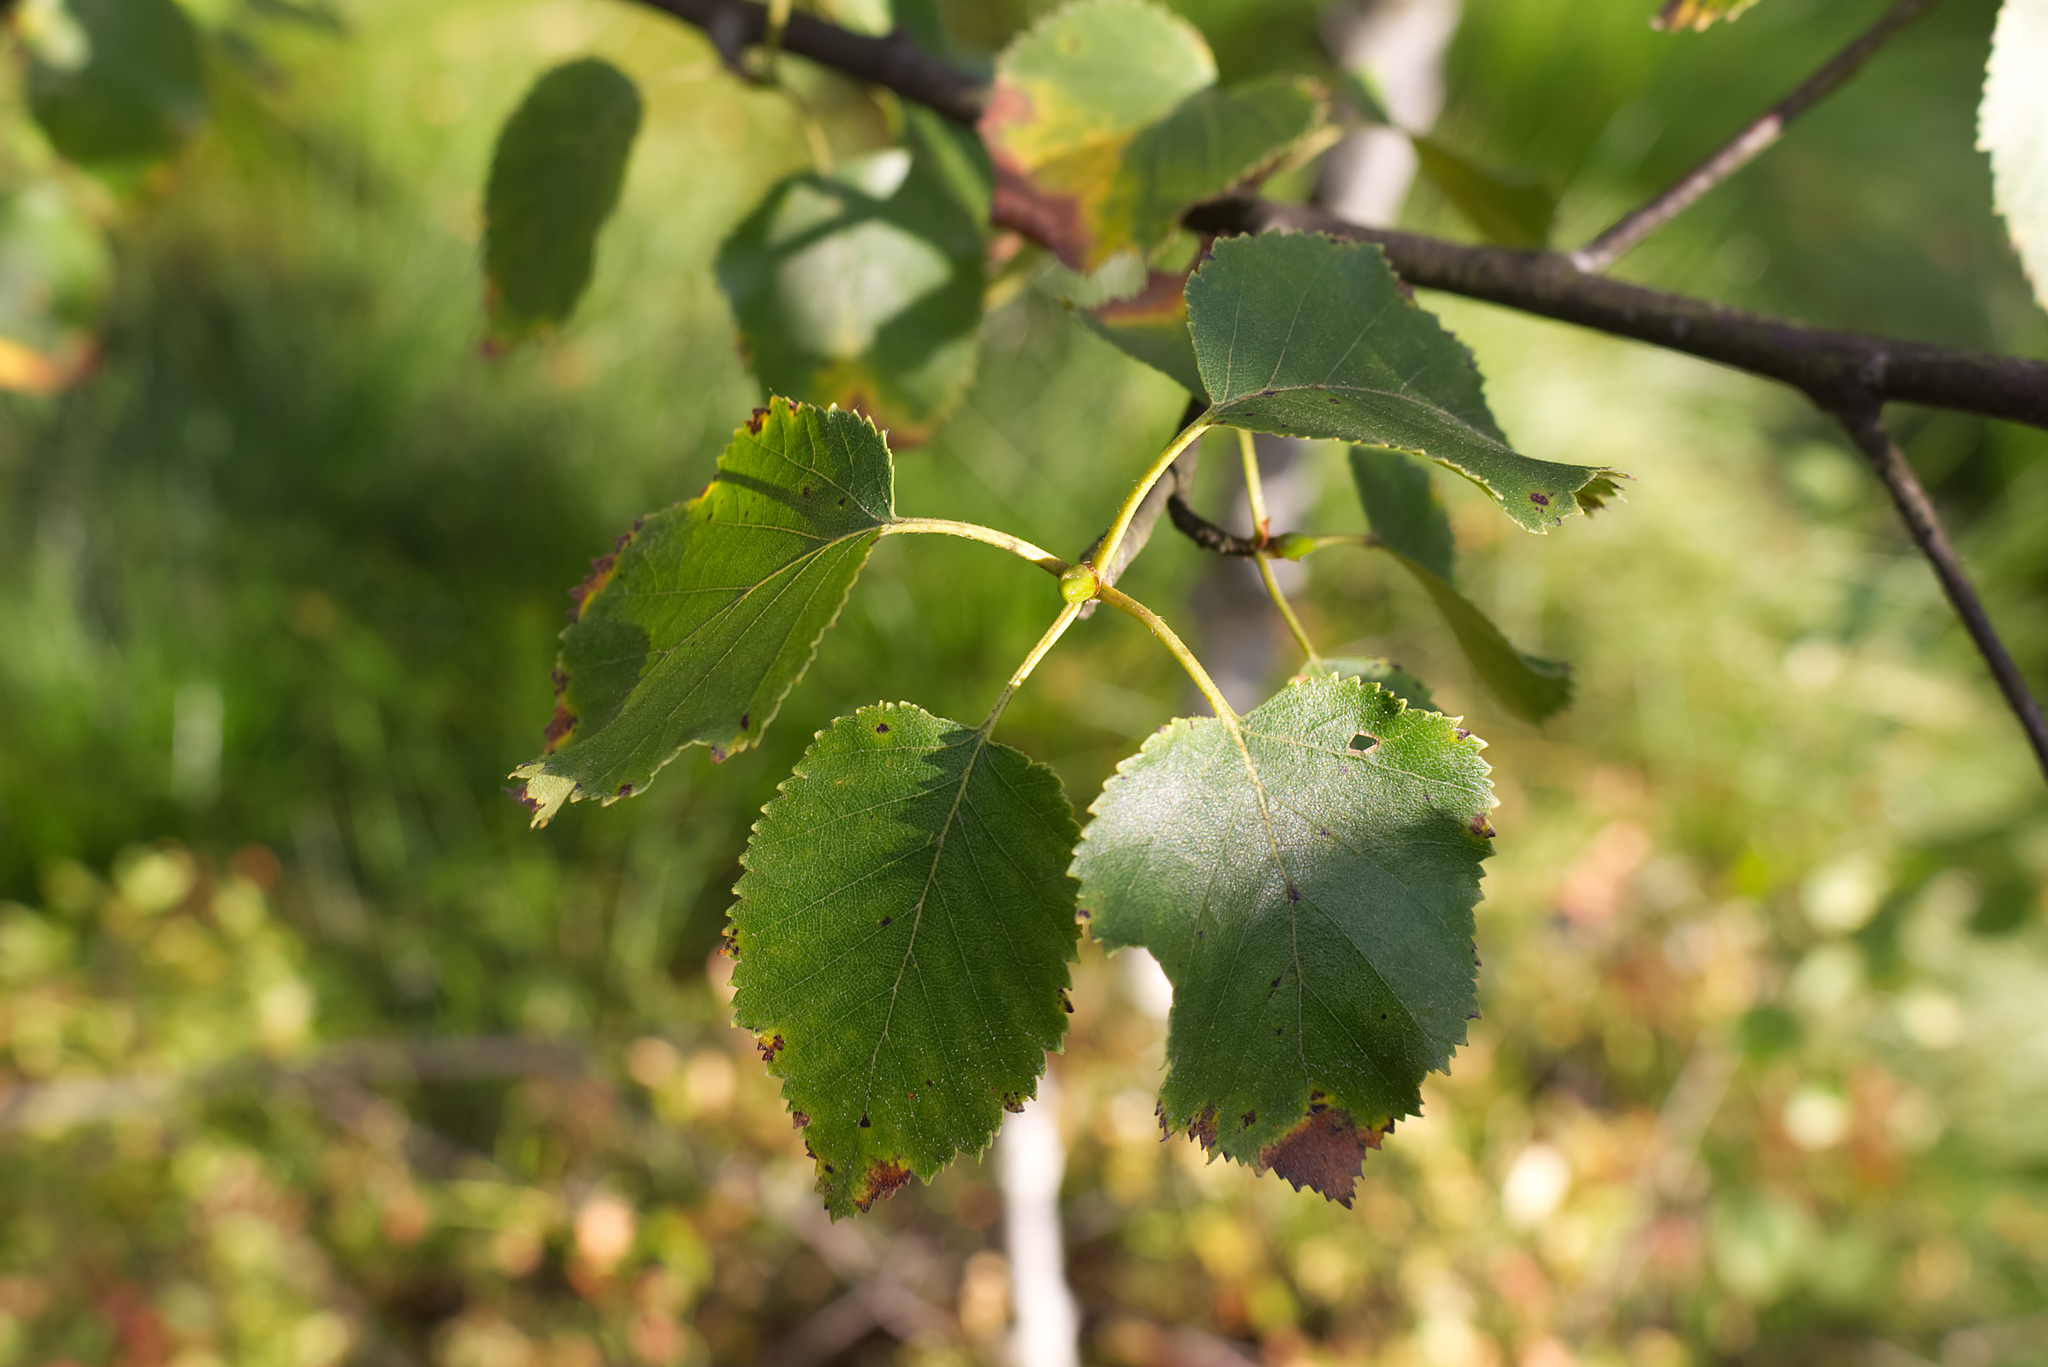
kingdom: Plantae
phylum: Tracheophyta
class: Magnoliopsida
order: Fagales
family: Betulaceae
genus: Betula
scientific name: Betula pubescens
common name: Downy birch
